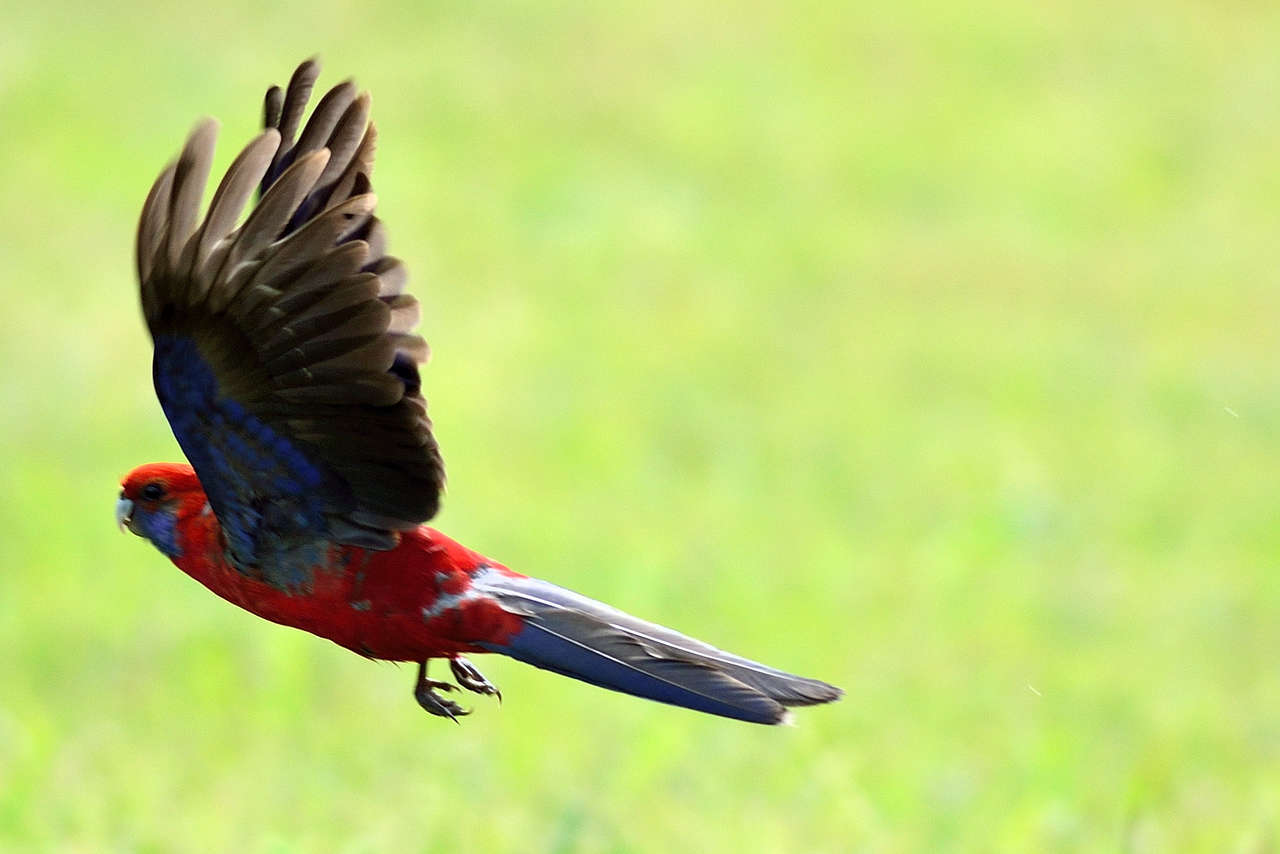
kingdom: Animalia
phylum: Chordata
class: Aves
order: Psittaciformes
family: Psittacidae
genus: Platycercus
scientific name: Platycercus elegans
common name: Crimson rosella
